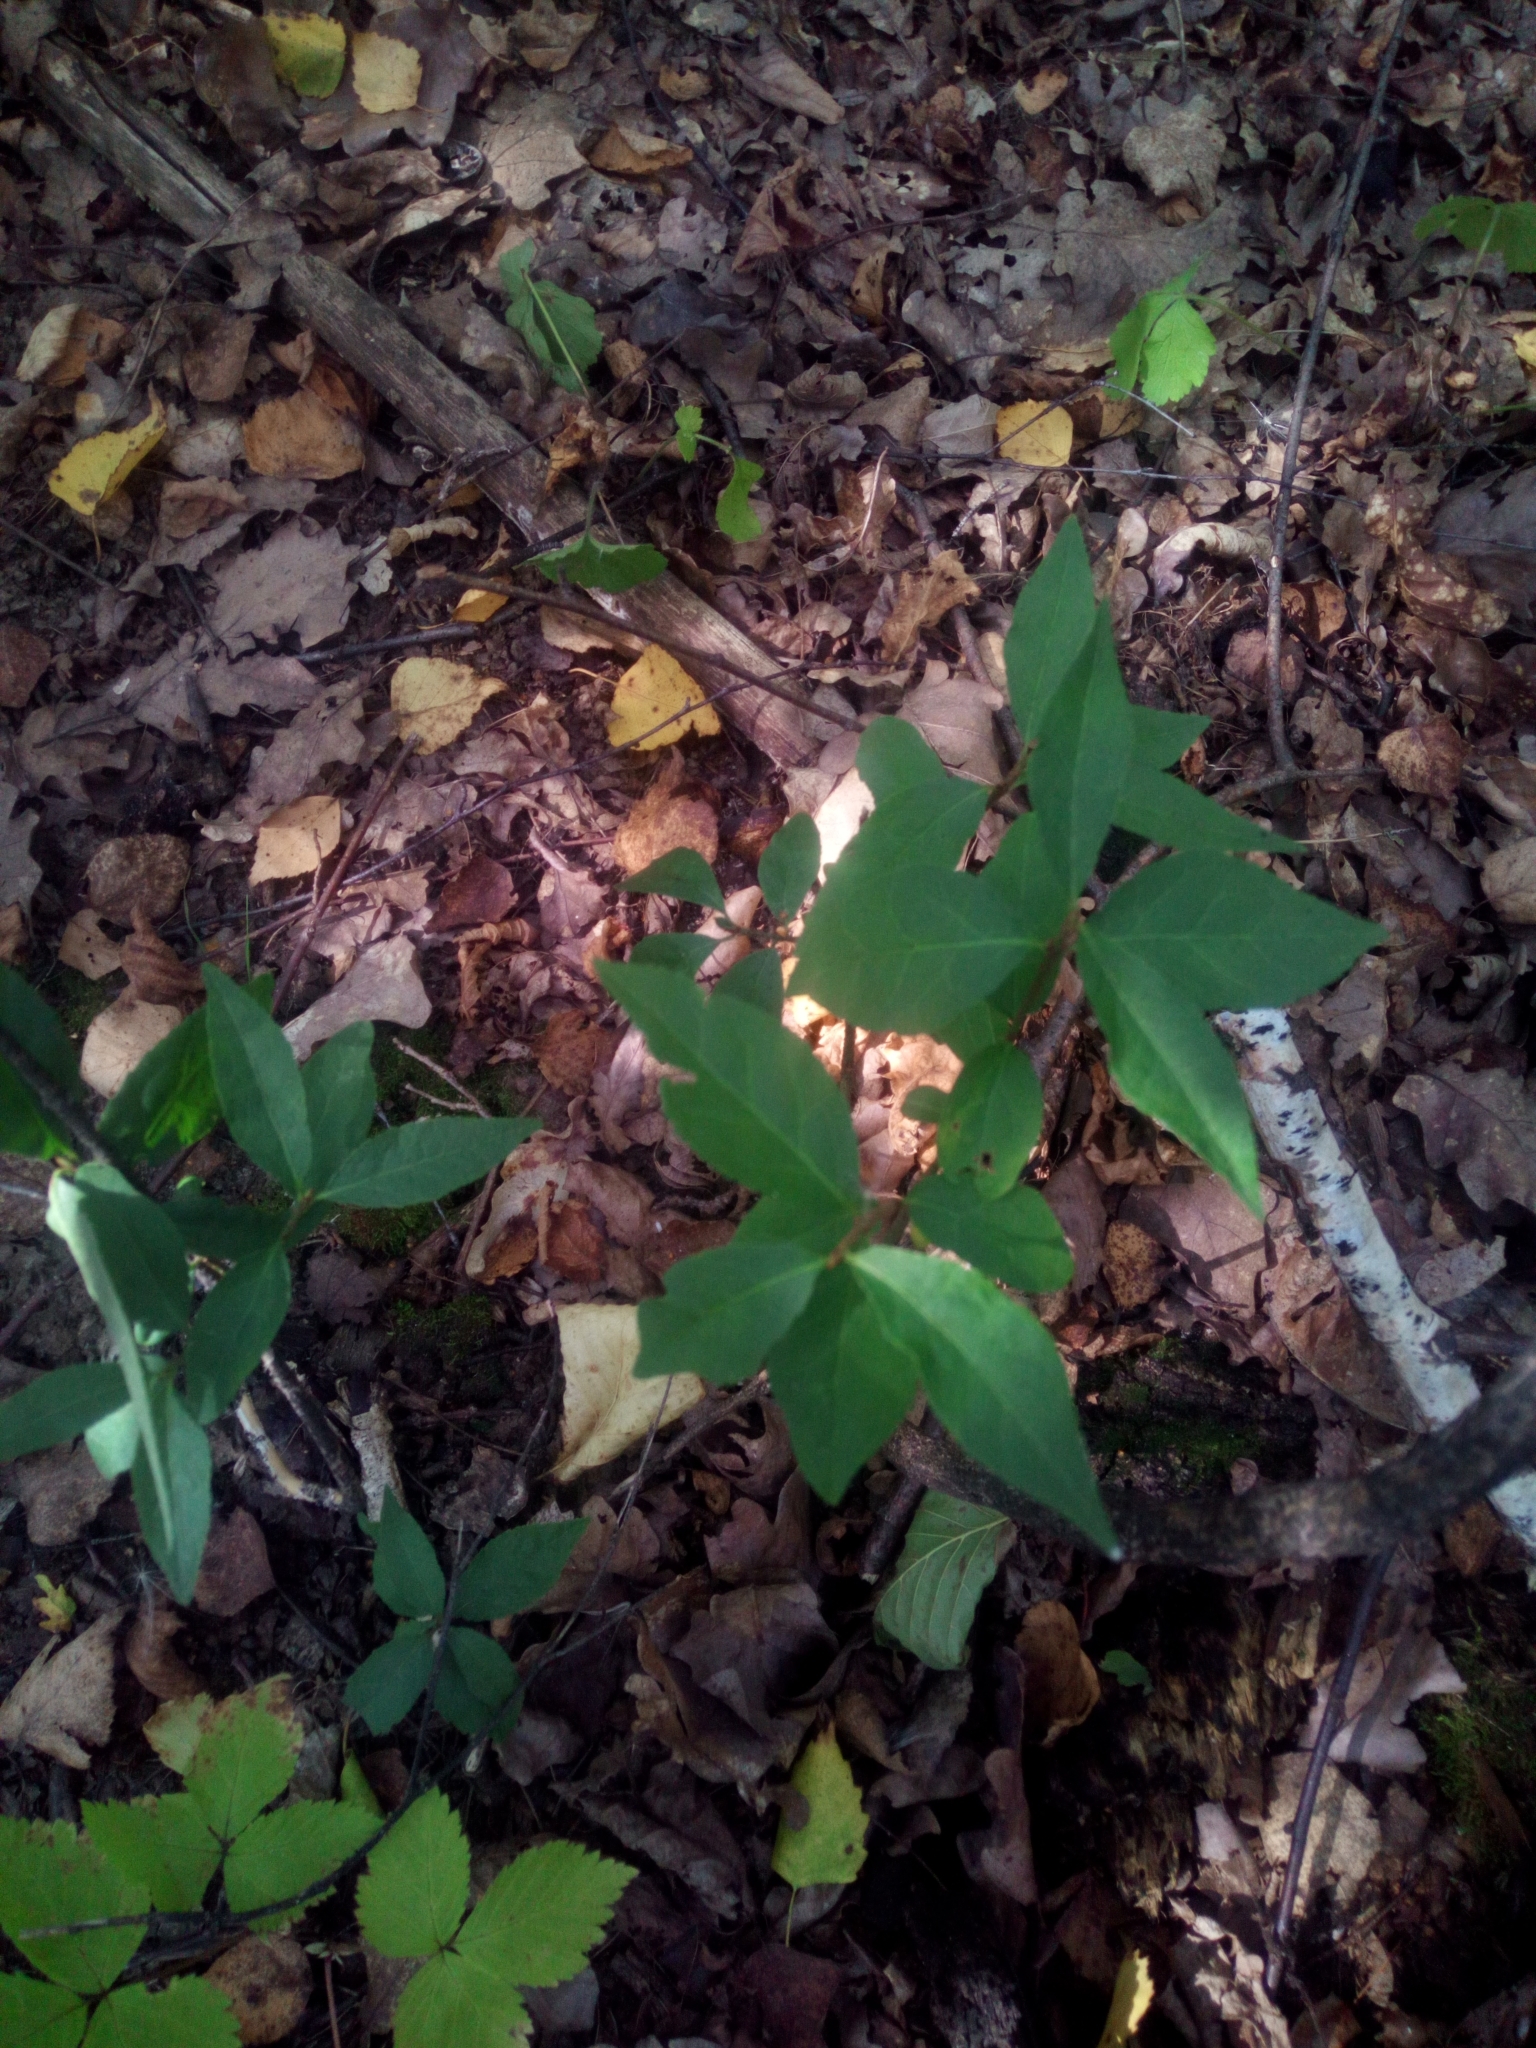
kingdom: Plantae
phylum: Tracheophyta
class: Magnoliopsida
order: Celastrales
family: Celastraceae
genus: Euonymus
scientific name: Euonymus europaeus
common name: Spindle
